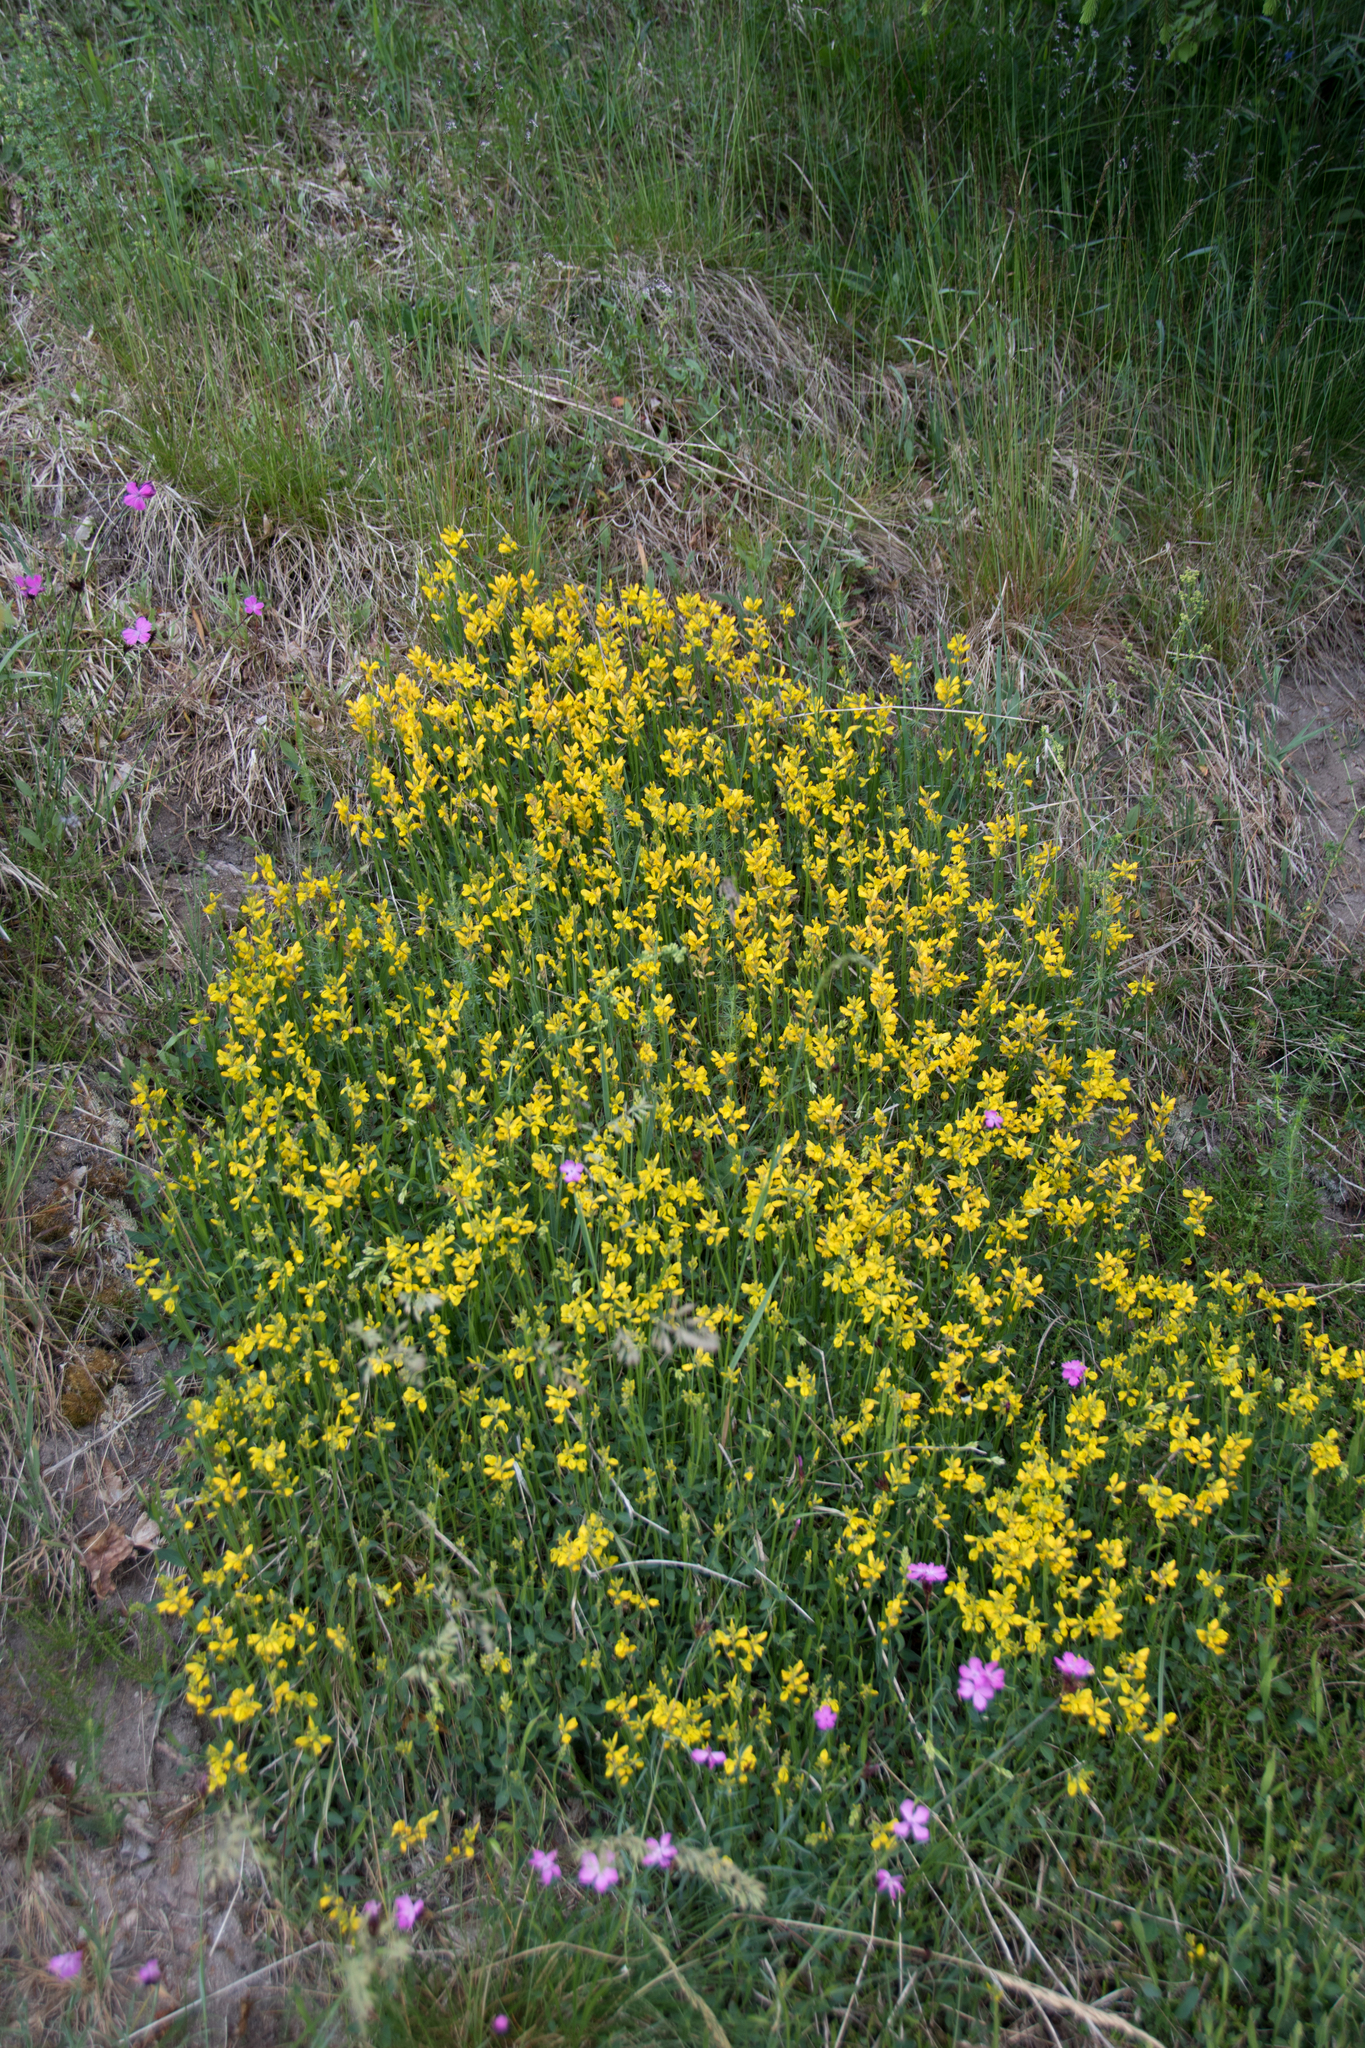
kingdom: Plantae
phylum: Tracheophyta
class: Magnoliopsida
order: Fabales
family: Fabaceae
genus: Genista
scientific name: Genista sagittalis
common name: Winged greenweed
